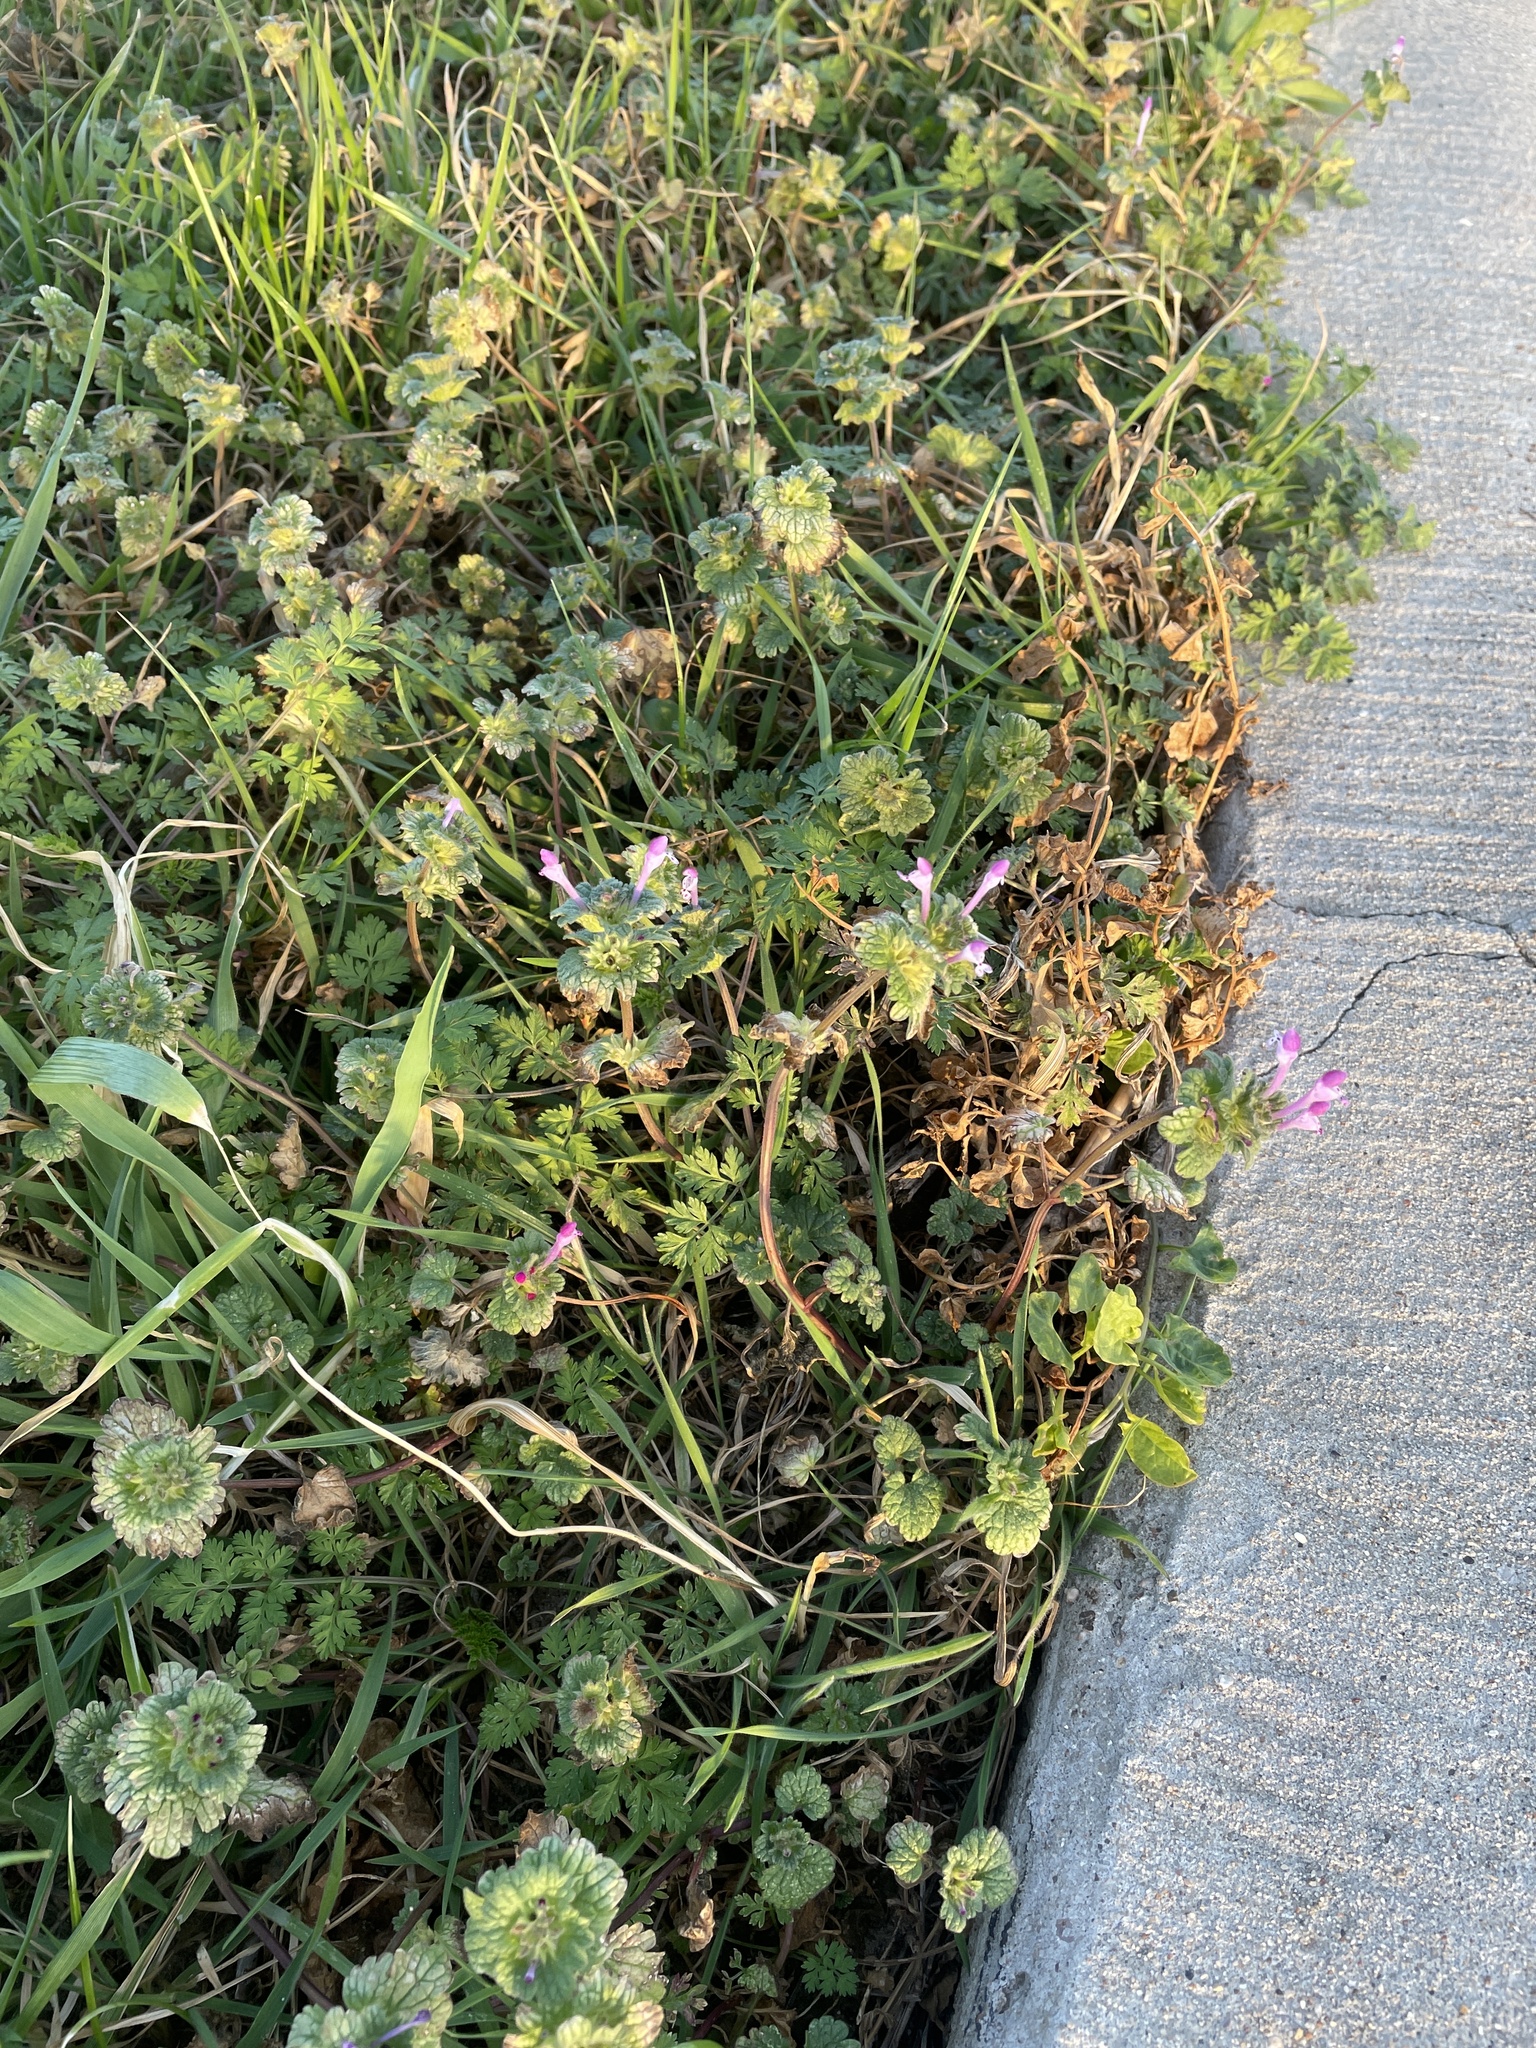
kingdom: Plantae
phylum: Tracheophyta
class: Magnoliopsida
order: Lamiales
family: Lamiaceae
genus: Lamium
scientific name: Lamium amplexicaule
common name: Henbit dead-nettle
